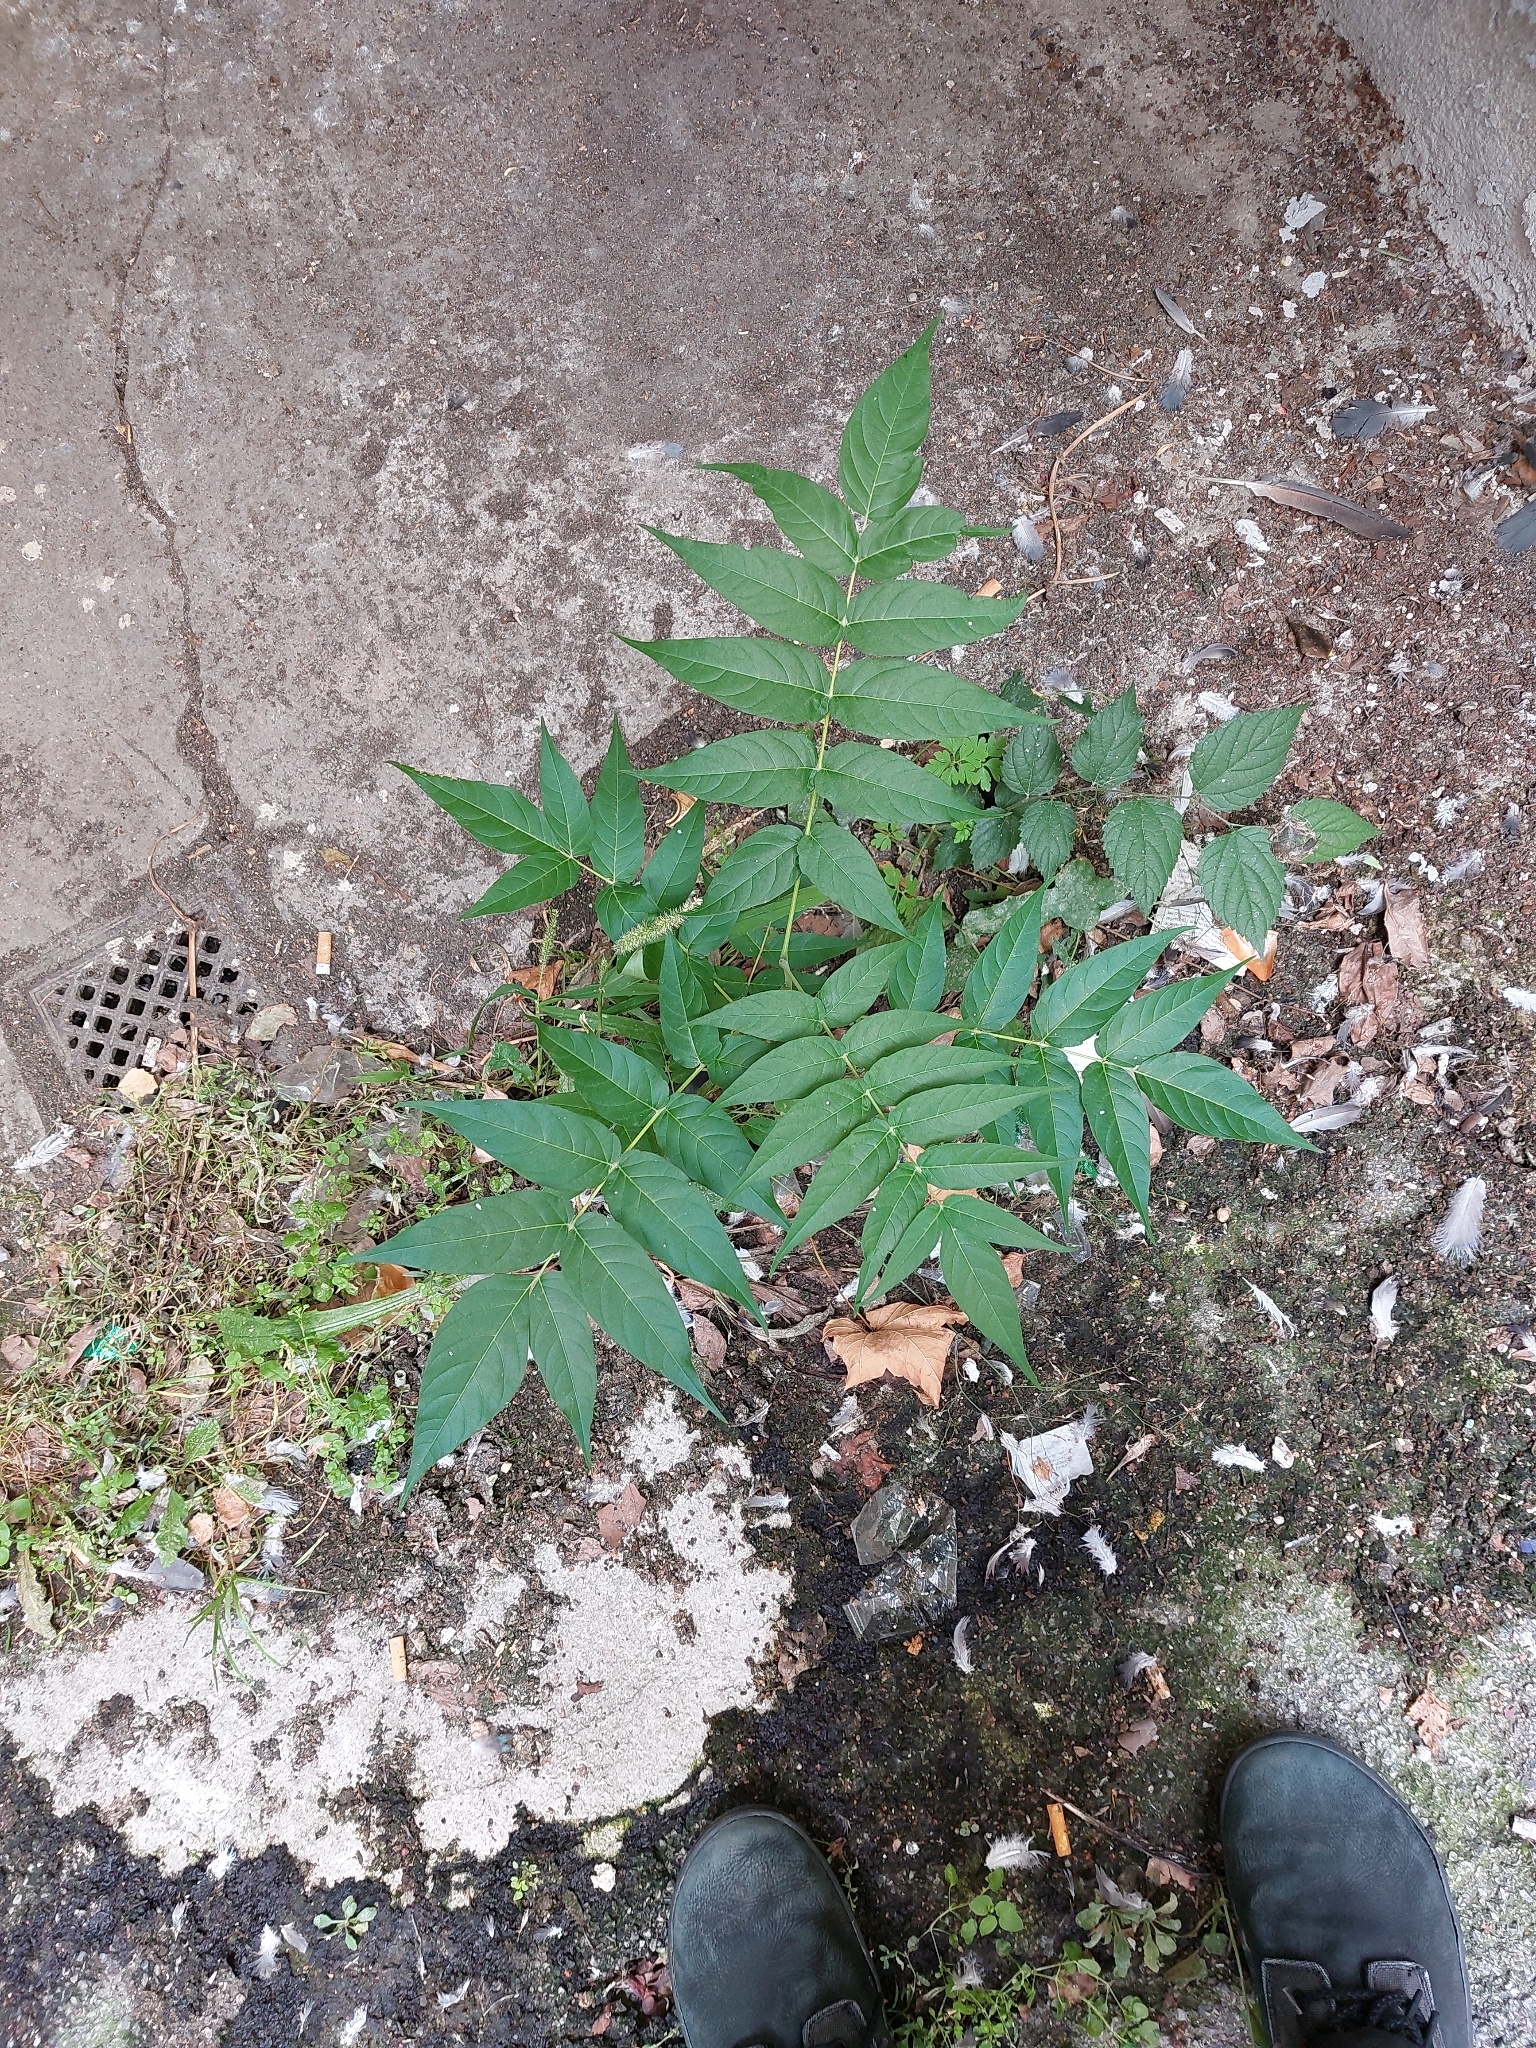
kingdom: Plantae
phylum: Tracheophyta
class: Magnoliopsida
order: Sapindales
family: Simaroubaceae
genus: Ailanthus
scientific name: Ailanthus altissima
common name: Tree-of-heaven
